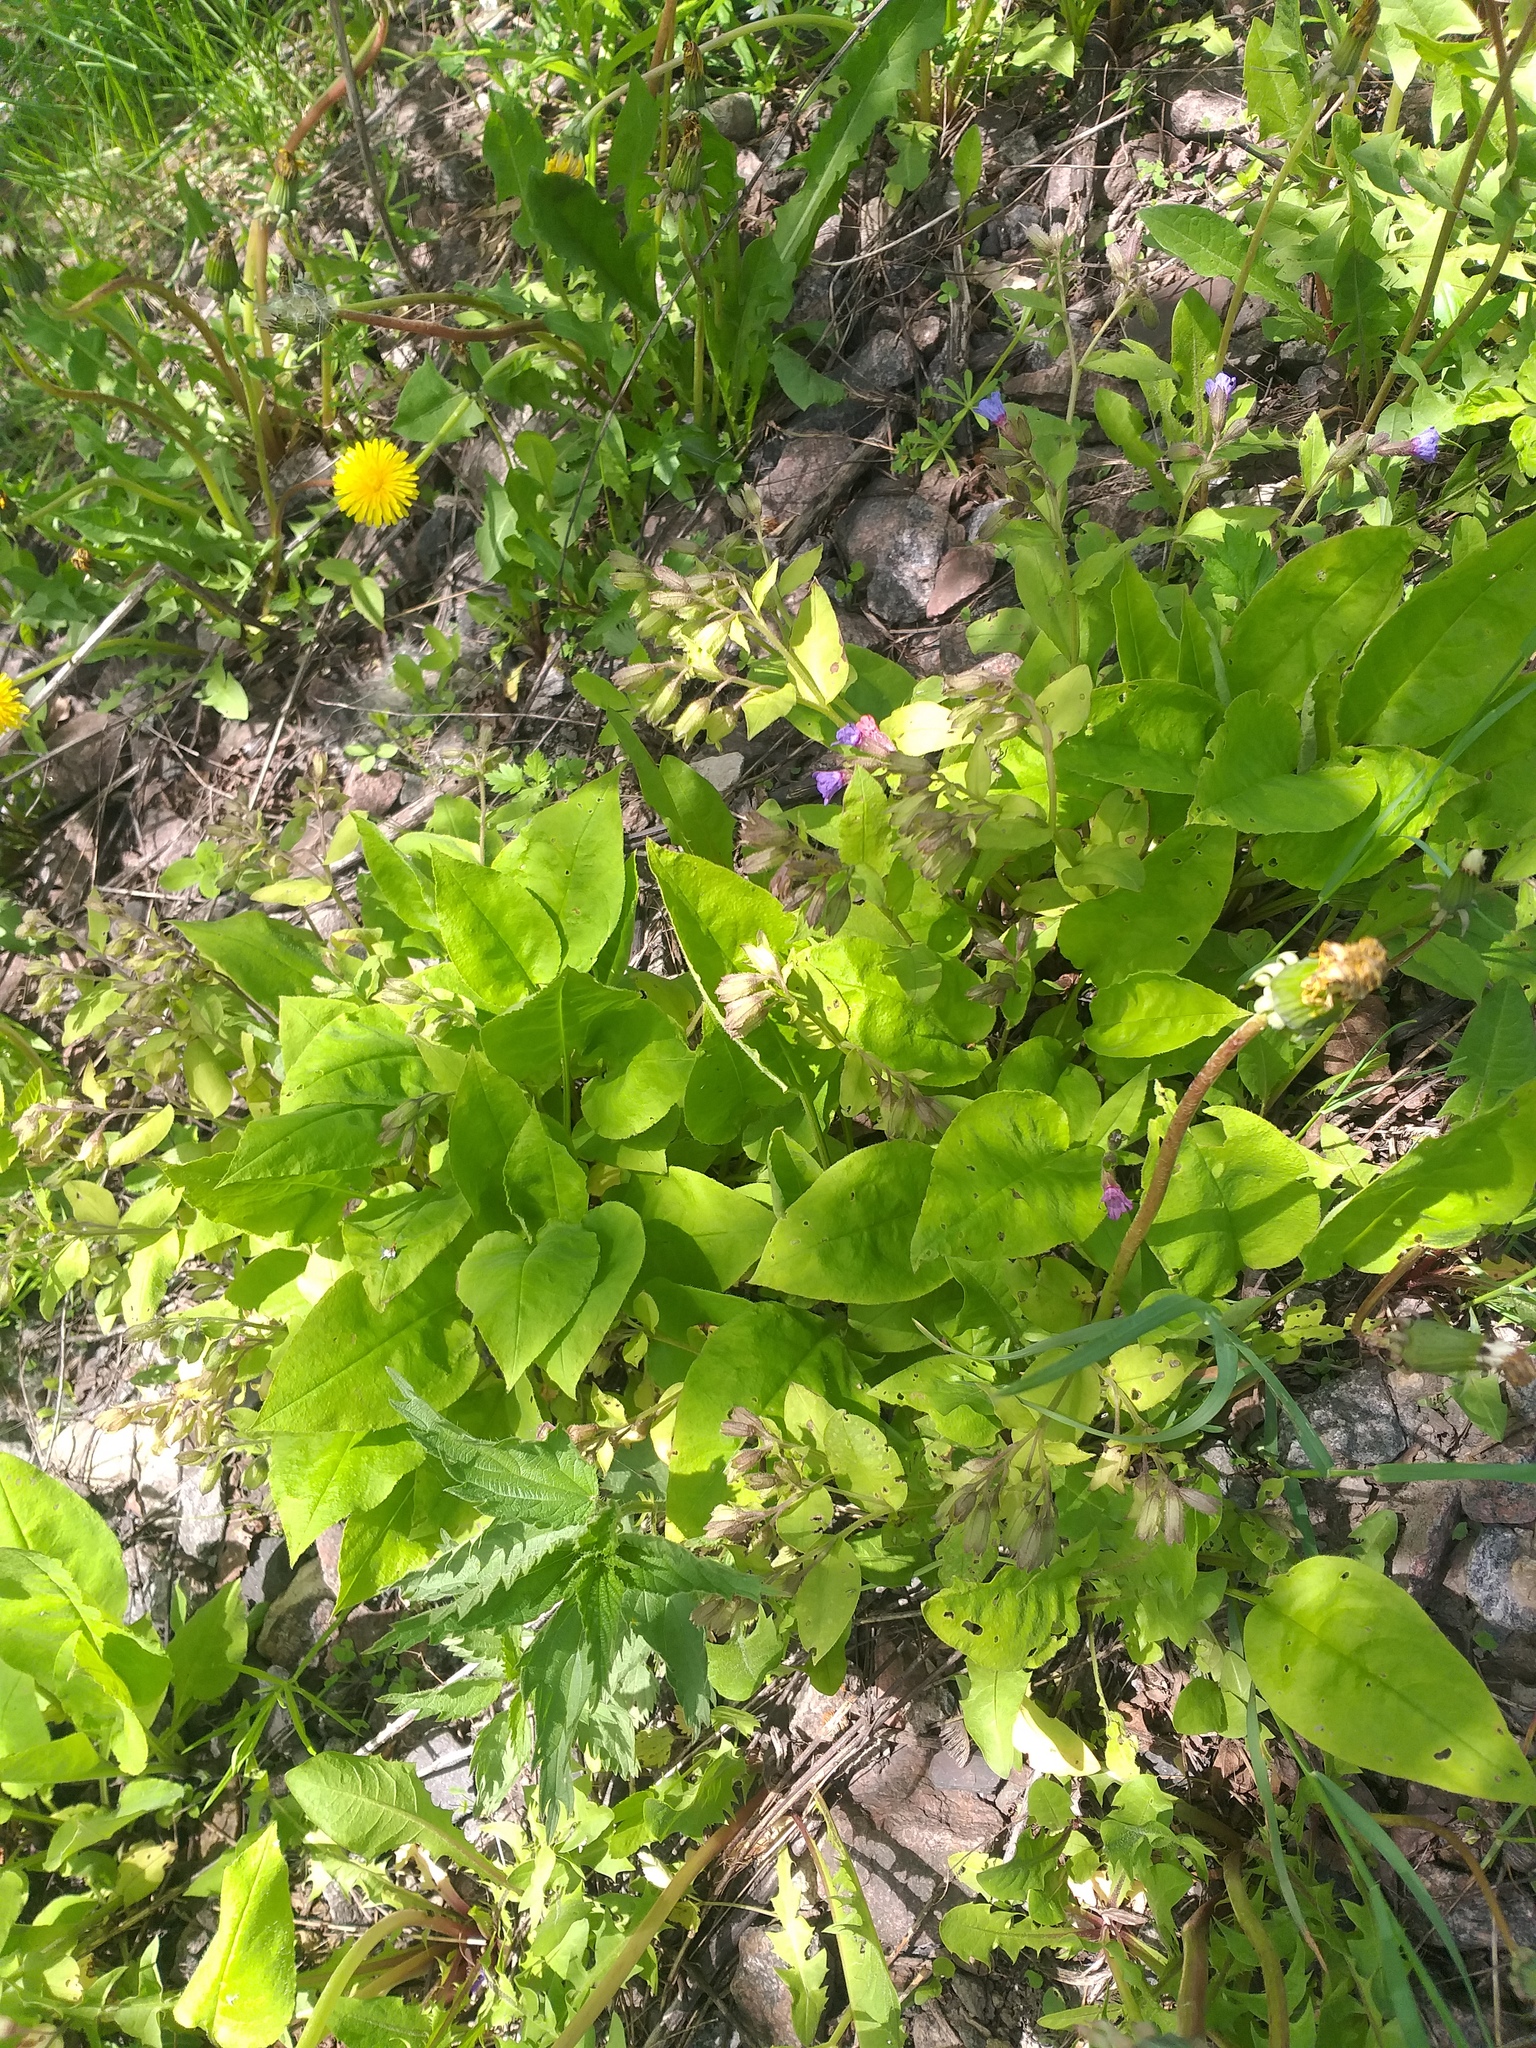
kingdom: Plantae
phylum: Tracheophyta
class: Magnoliopsida
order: Boraginales
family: Boraginaceae
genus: Pulmonaria
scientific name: Pulmonaria obscura
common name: Suffolk lungwort
